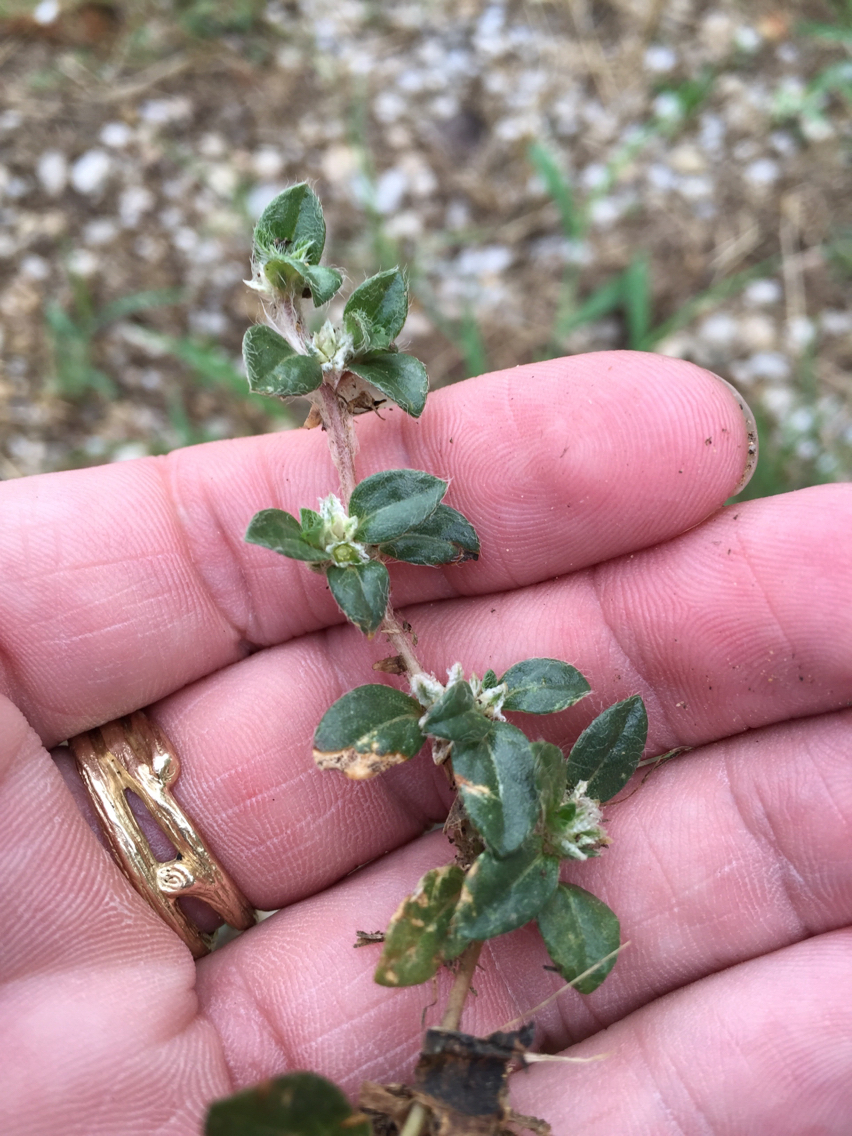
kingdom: Plantae
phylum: Tracheophyta
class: Magnoliopsida
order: Caryophyllales
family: Amaranthaceae
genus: Gomphrena
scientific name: Gomphrena lanuparonychioides
